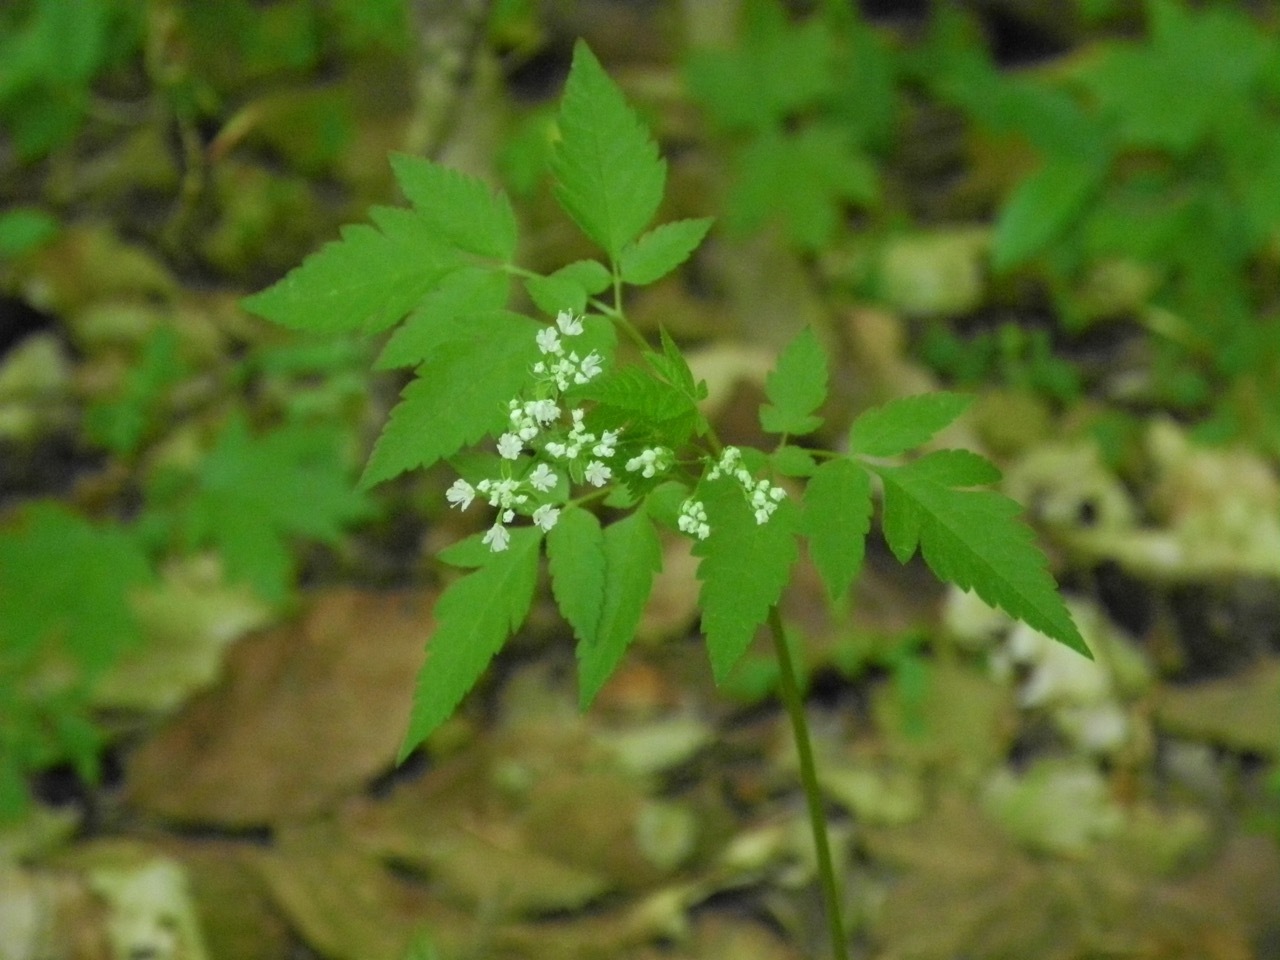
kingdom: Plantae
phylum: Tracheophyta
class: Magnoliopsida
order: Apiales
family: Apiaceae
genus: Osmorhiza
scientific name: Osmorhiza longistylis
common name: Smooth sweet cicely
